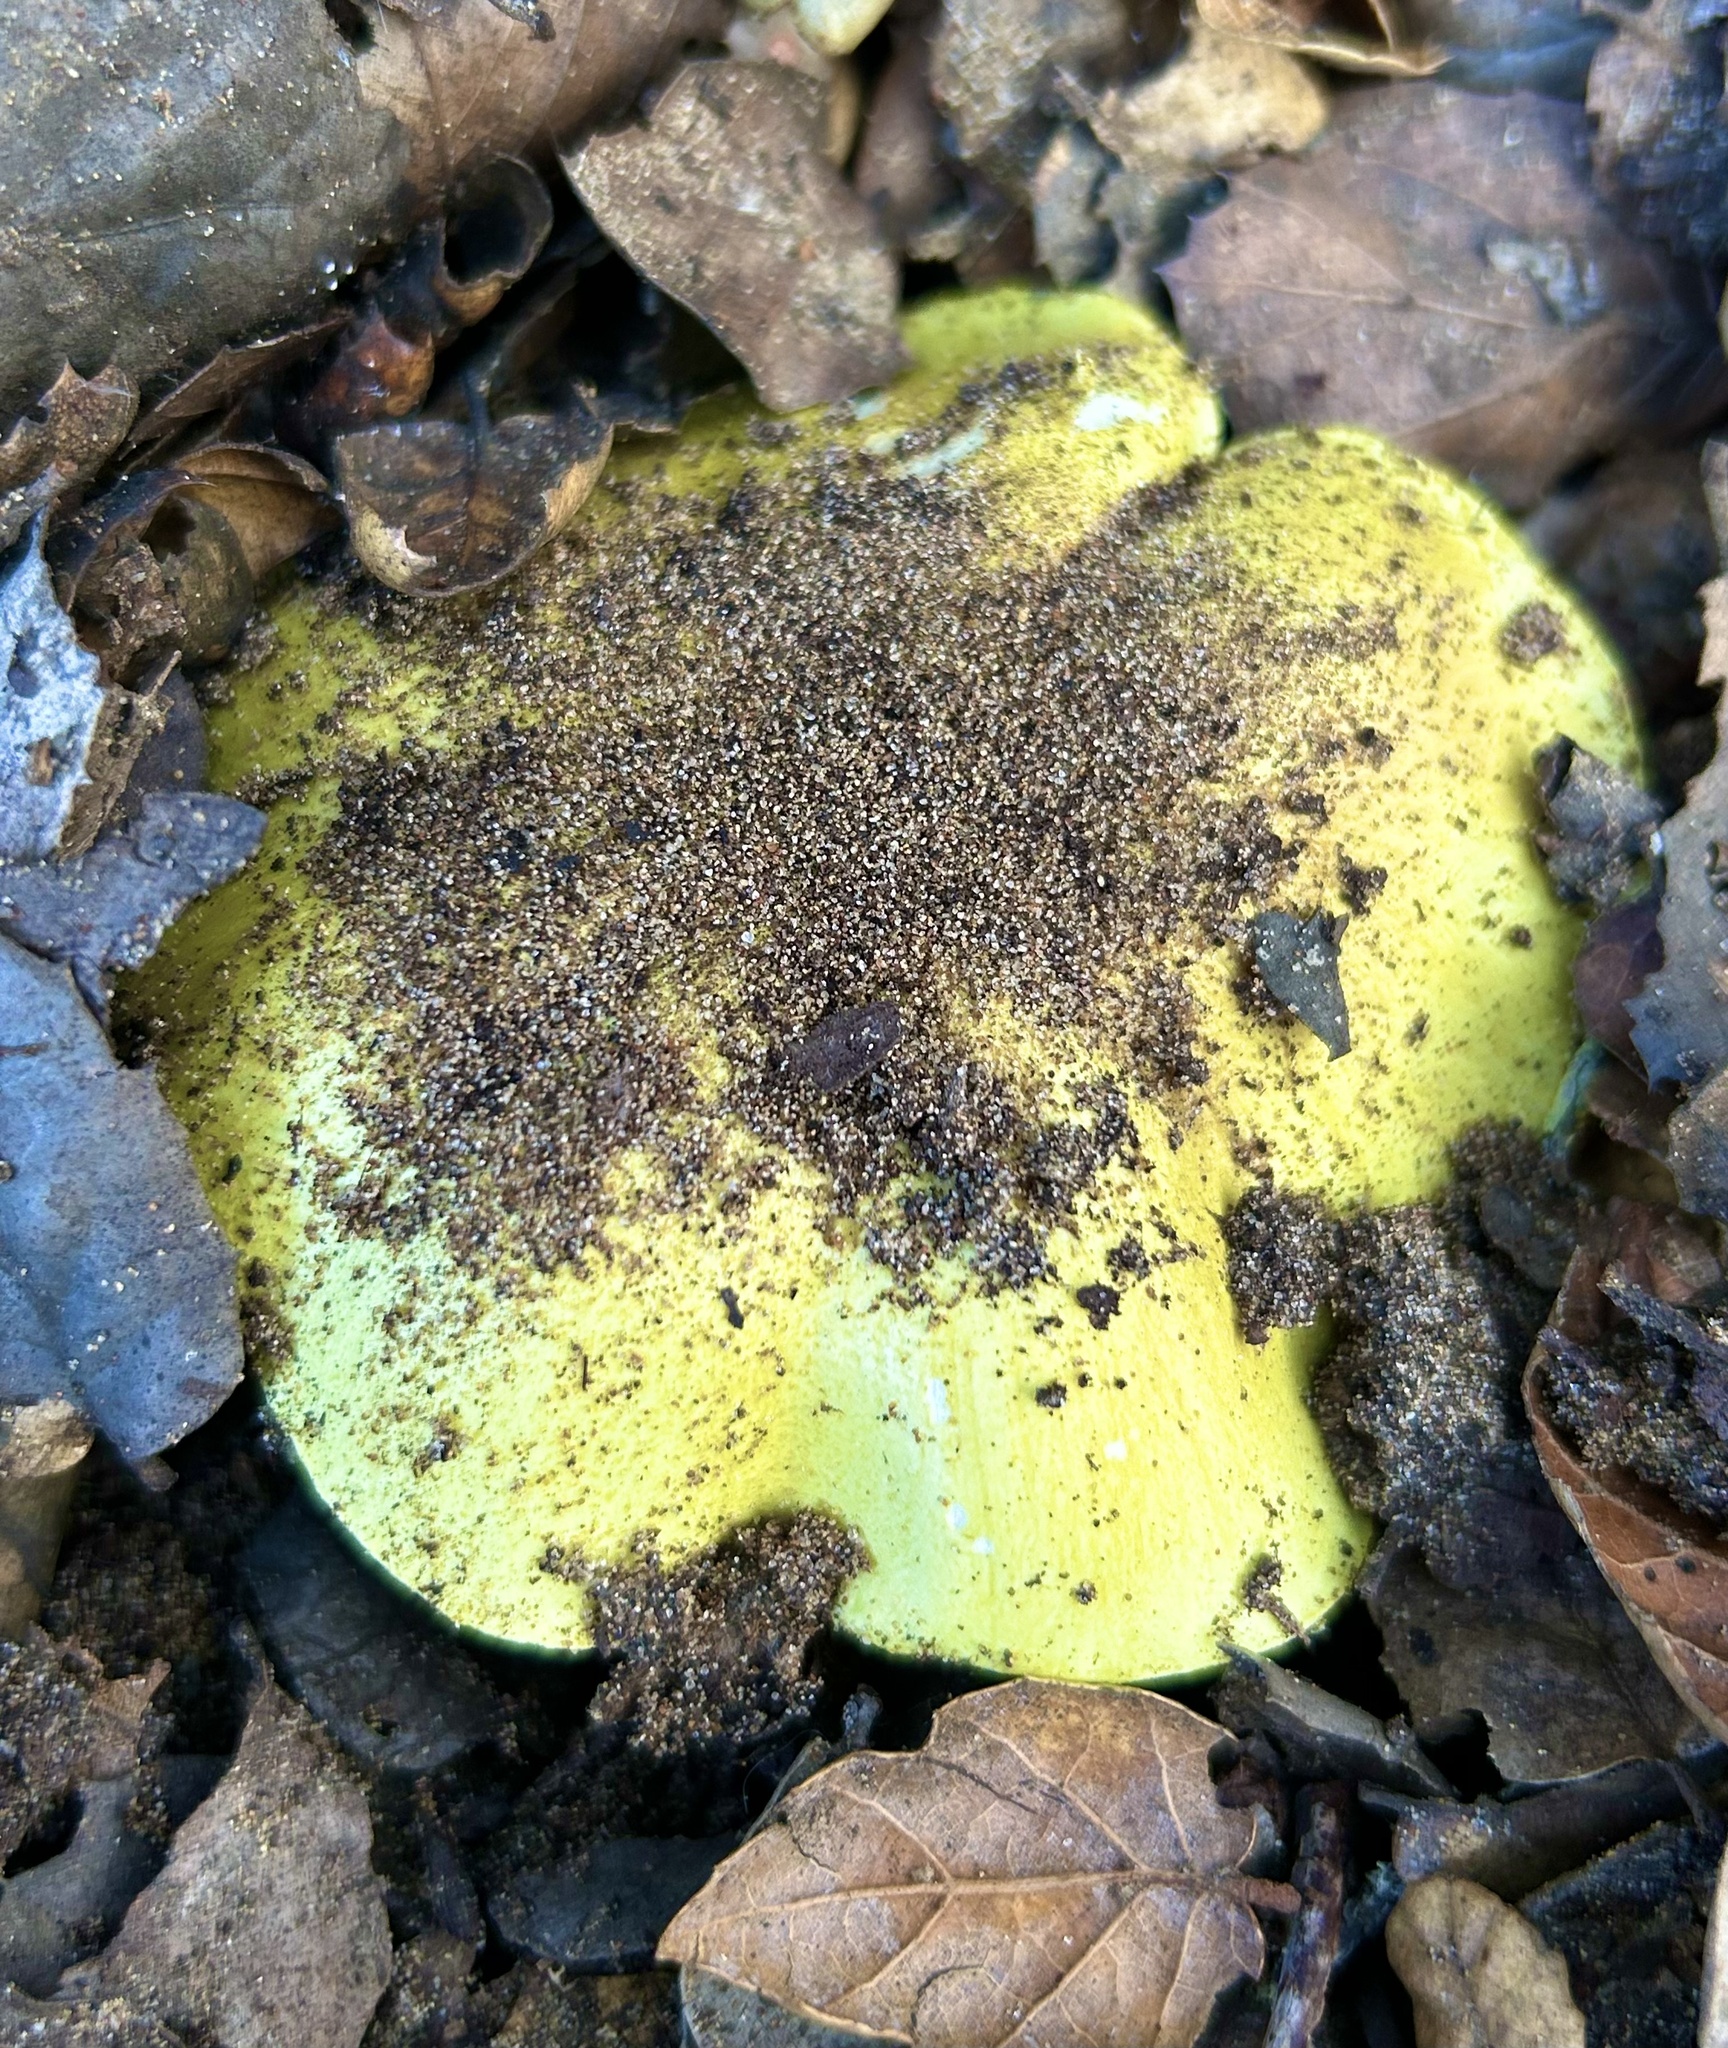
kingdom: Fungi
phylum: Basidiomycota
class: Agaricomycetes
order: Agaricales
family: Tricholomataceae
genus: Melanoleuca
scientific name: Melanoleuca yatesii
